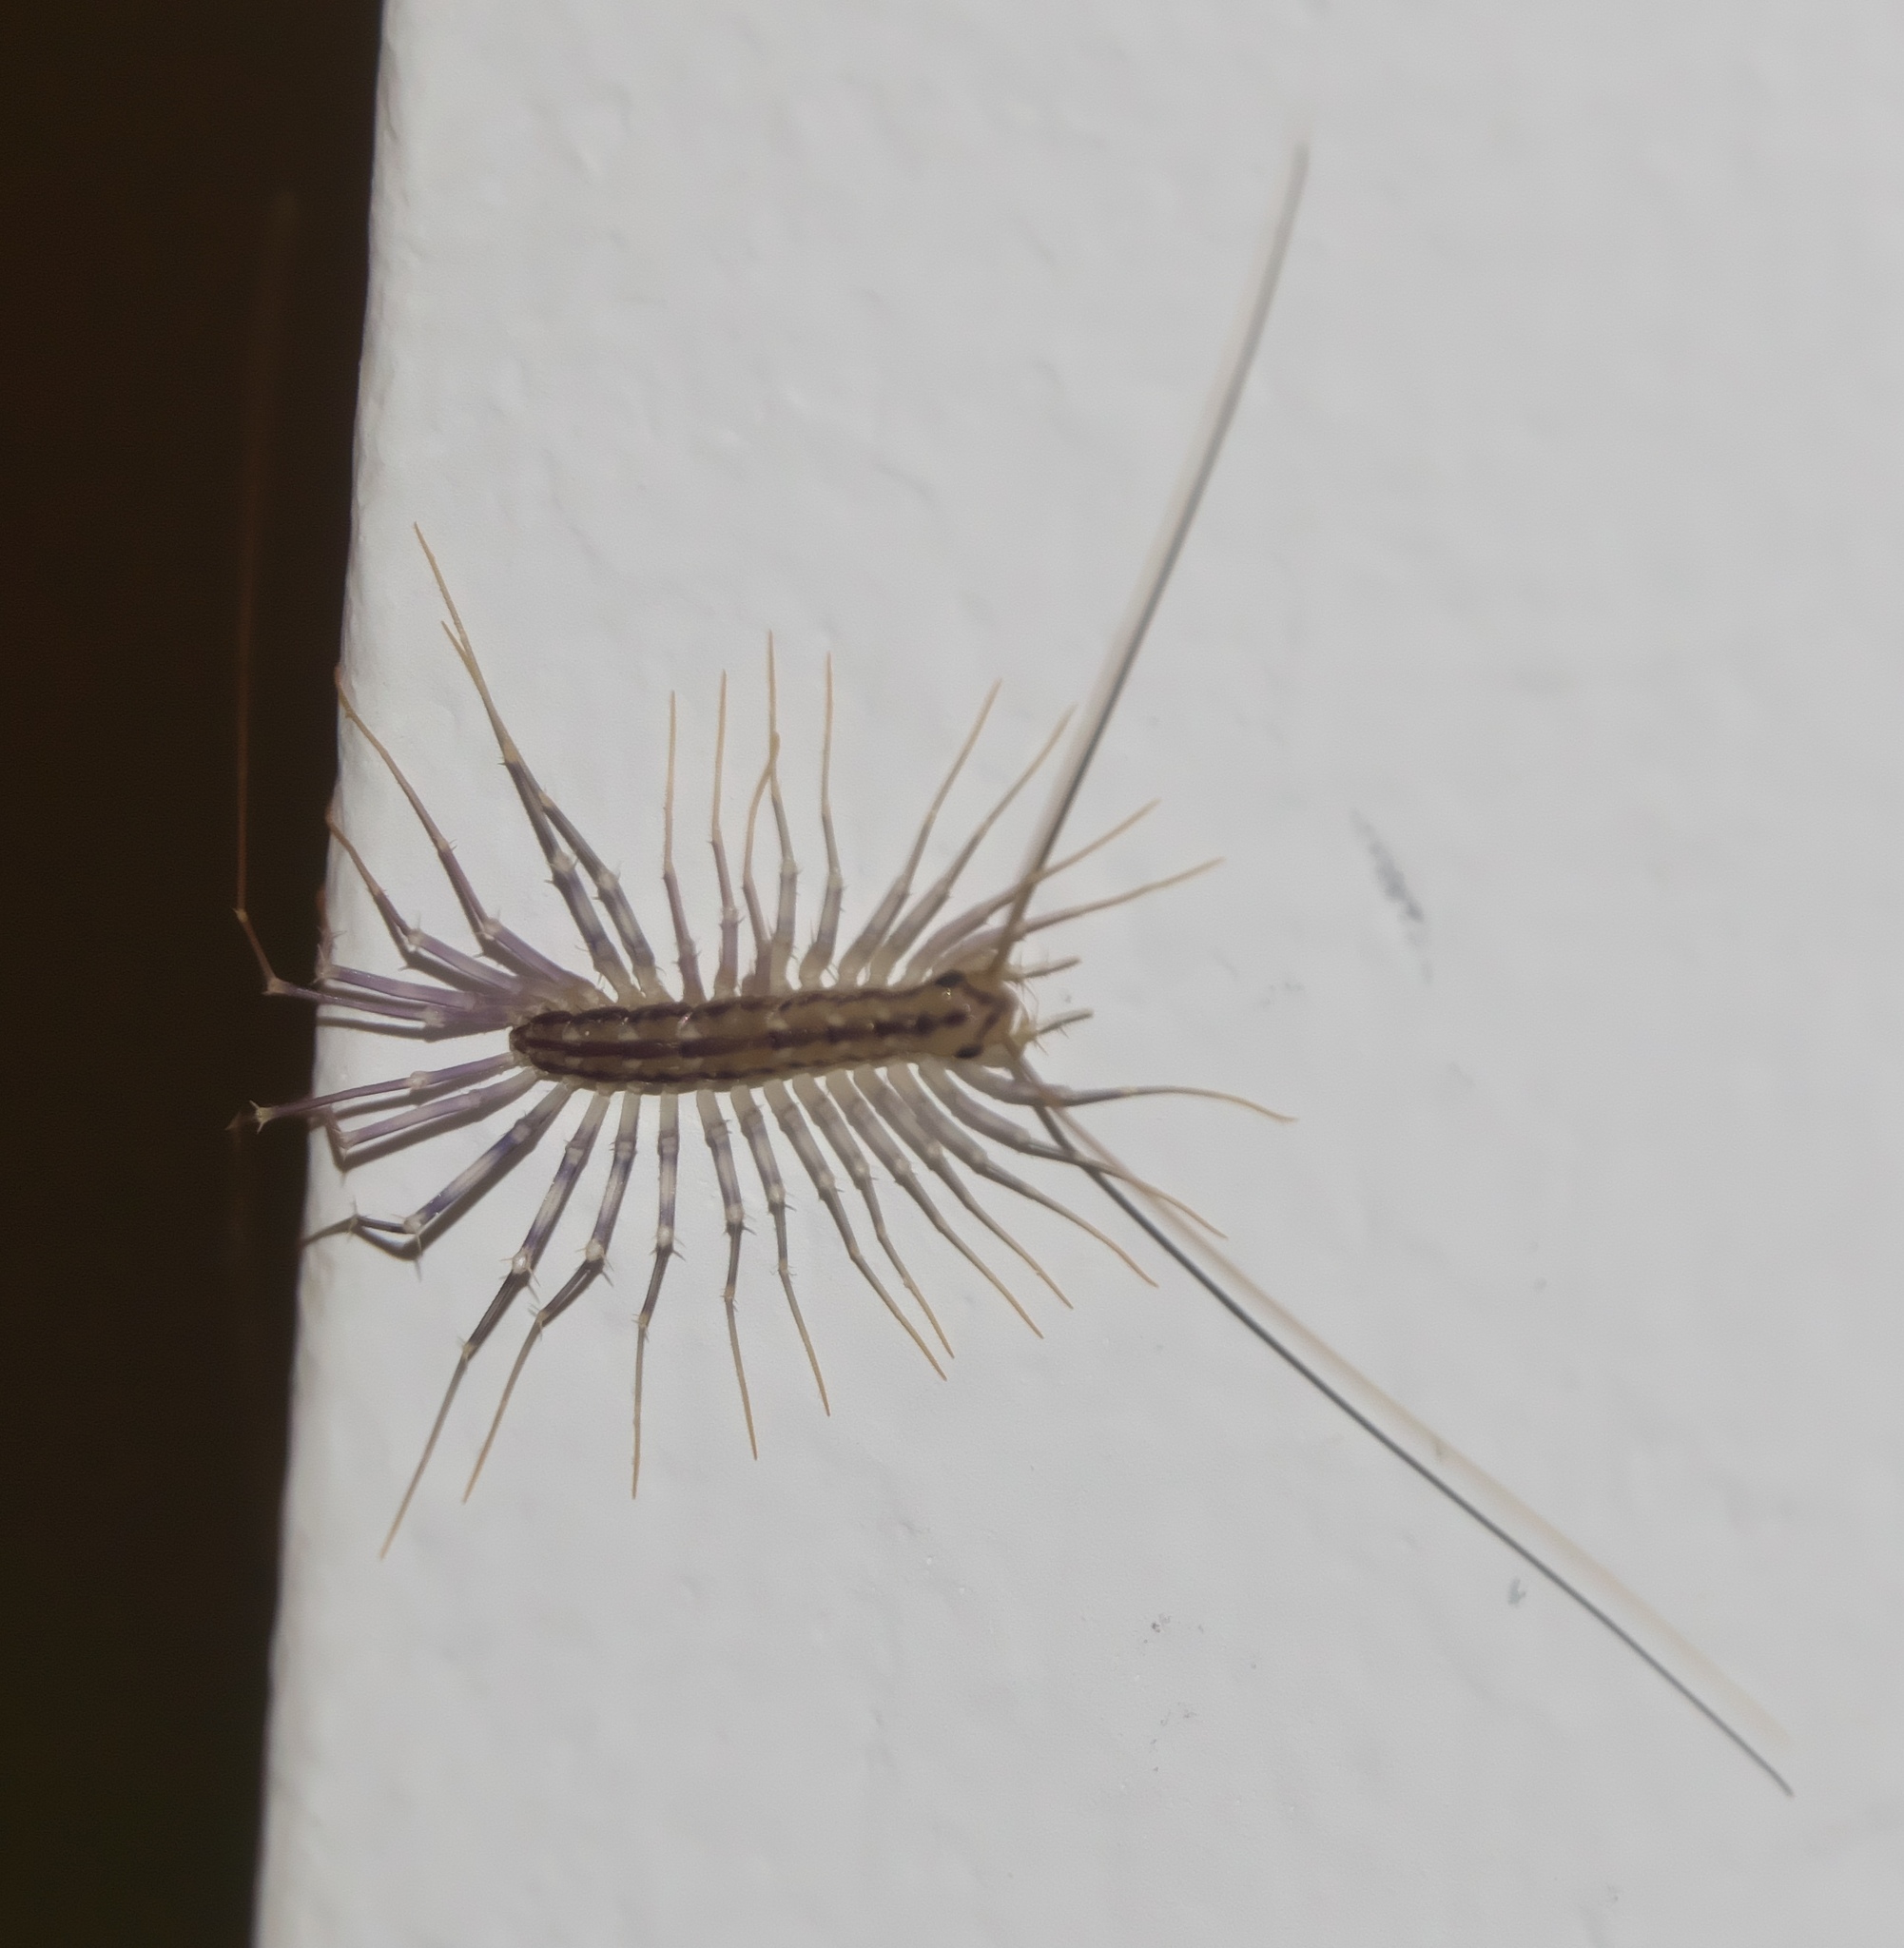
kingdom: Animalia
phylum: Arthropoda
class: Chilopoda
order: Scutigeromorpha
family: Scutigeridae
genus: Scutigera
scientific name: Scutigera coleoptrata
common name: House centipede
